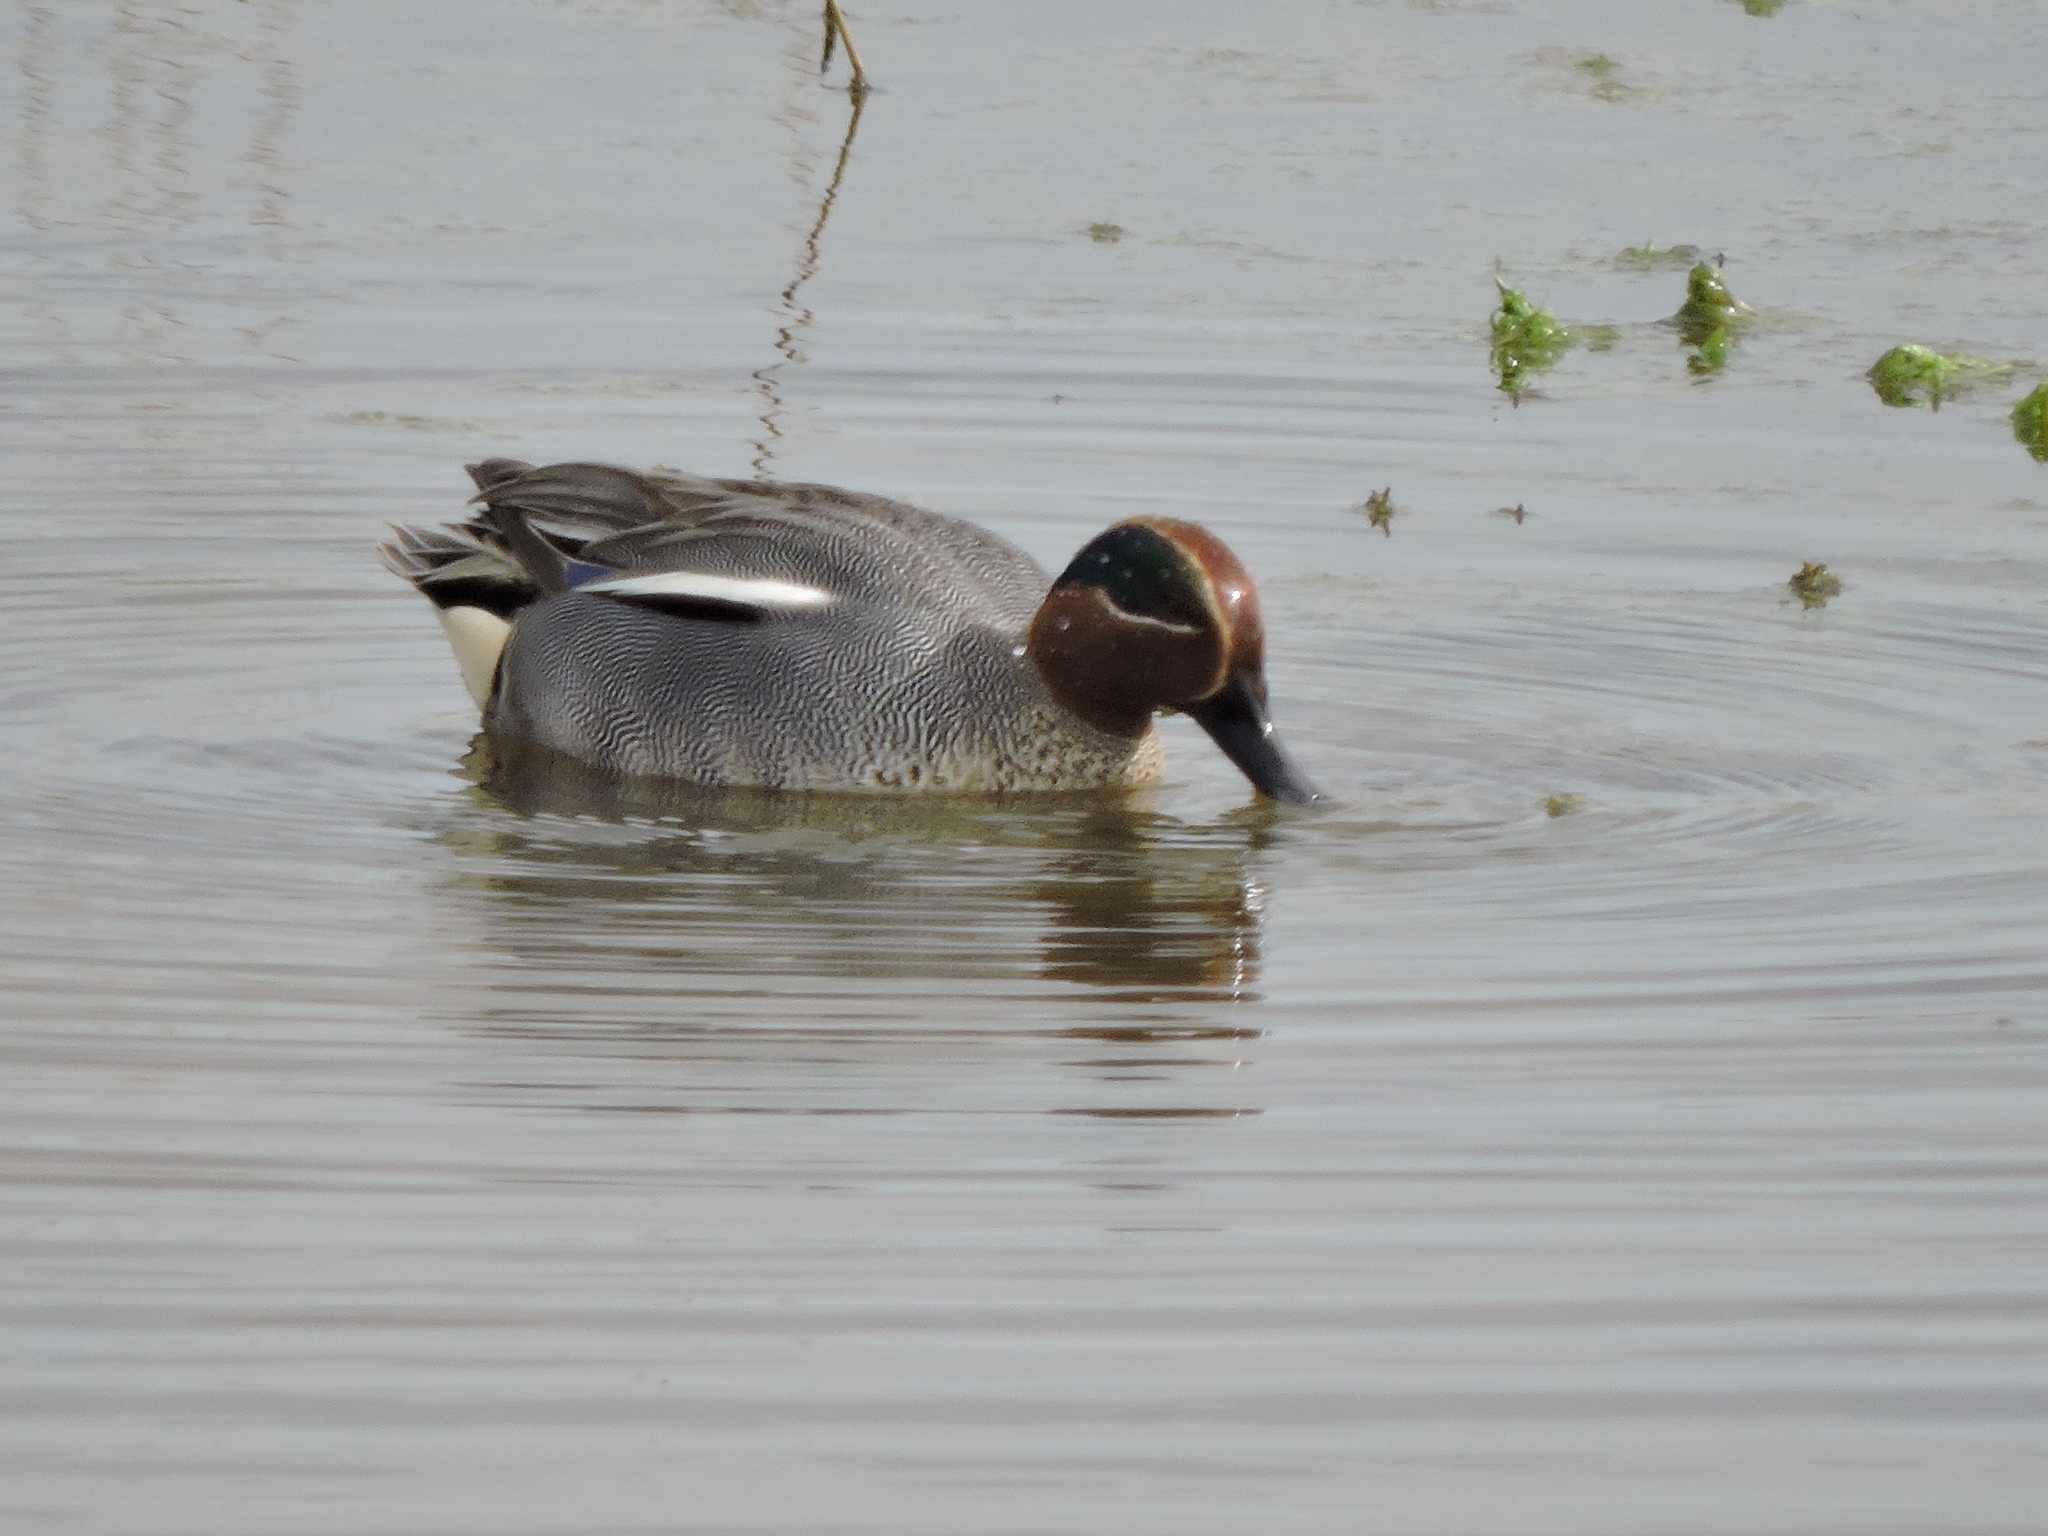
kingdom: Animalia
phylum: Chordata
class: Aves
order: Anseriformes
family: Anatidae
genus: Anas
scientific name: Anas crecca
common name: Eurasian teal
